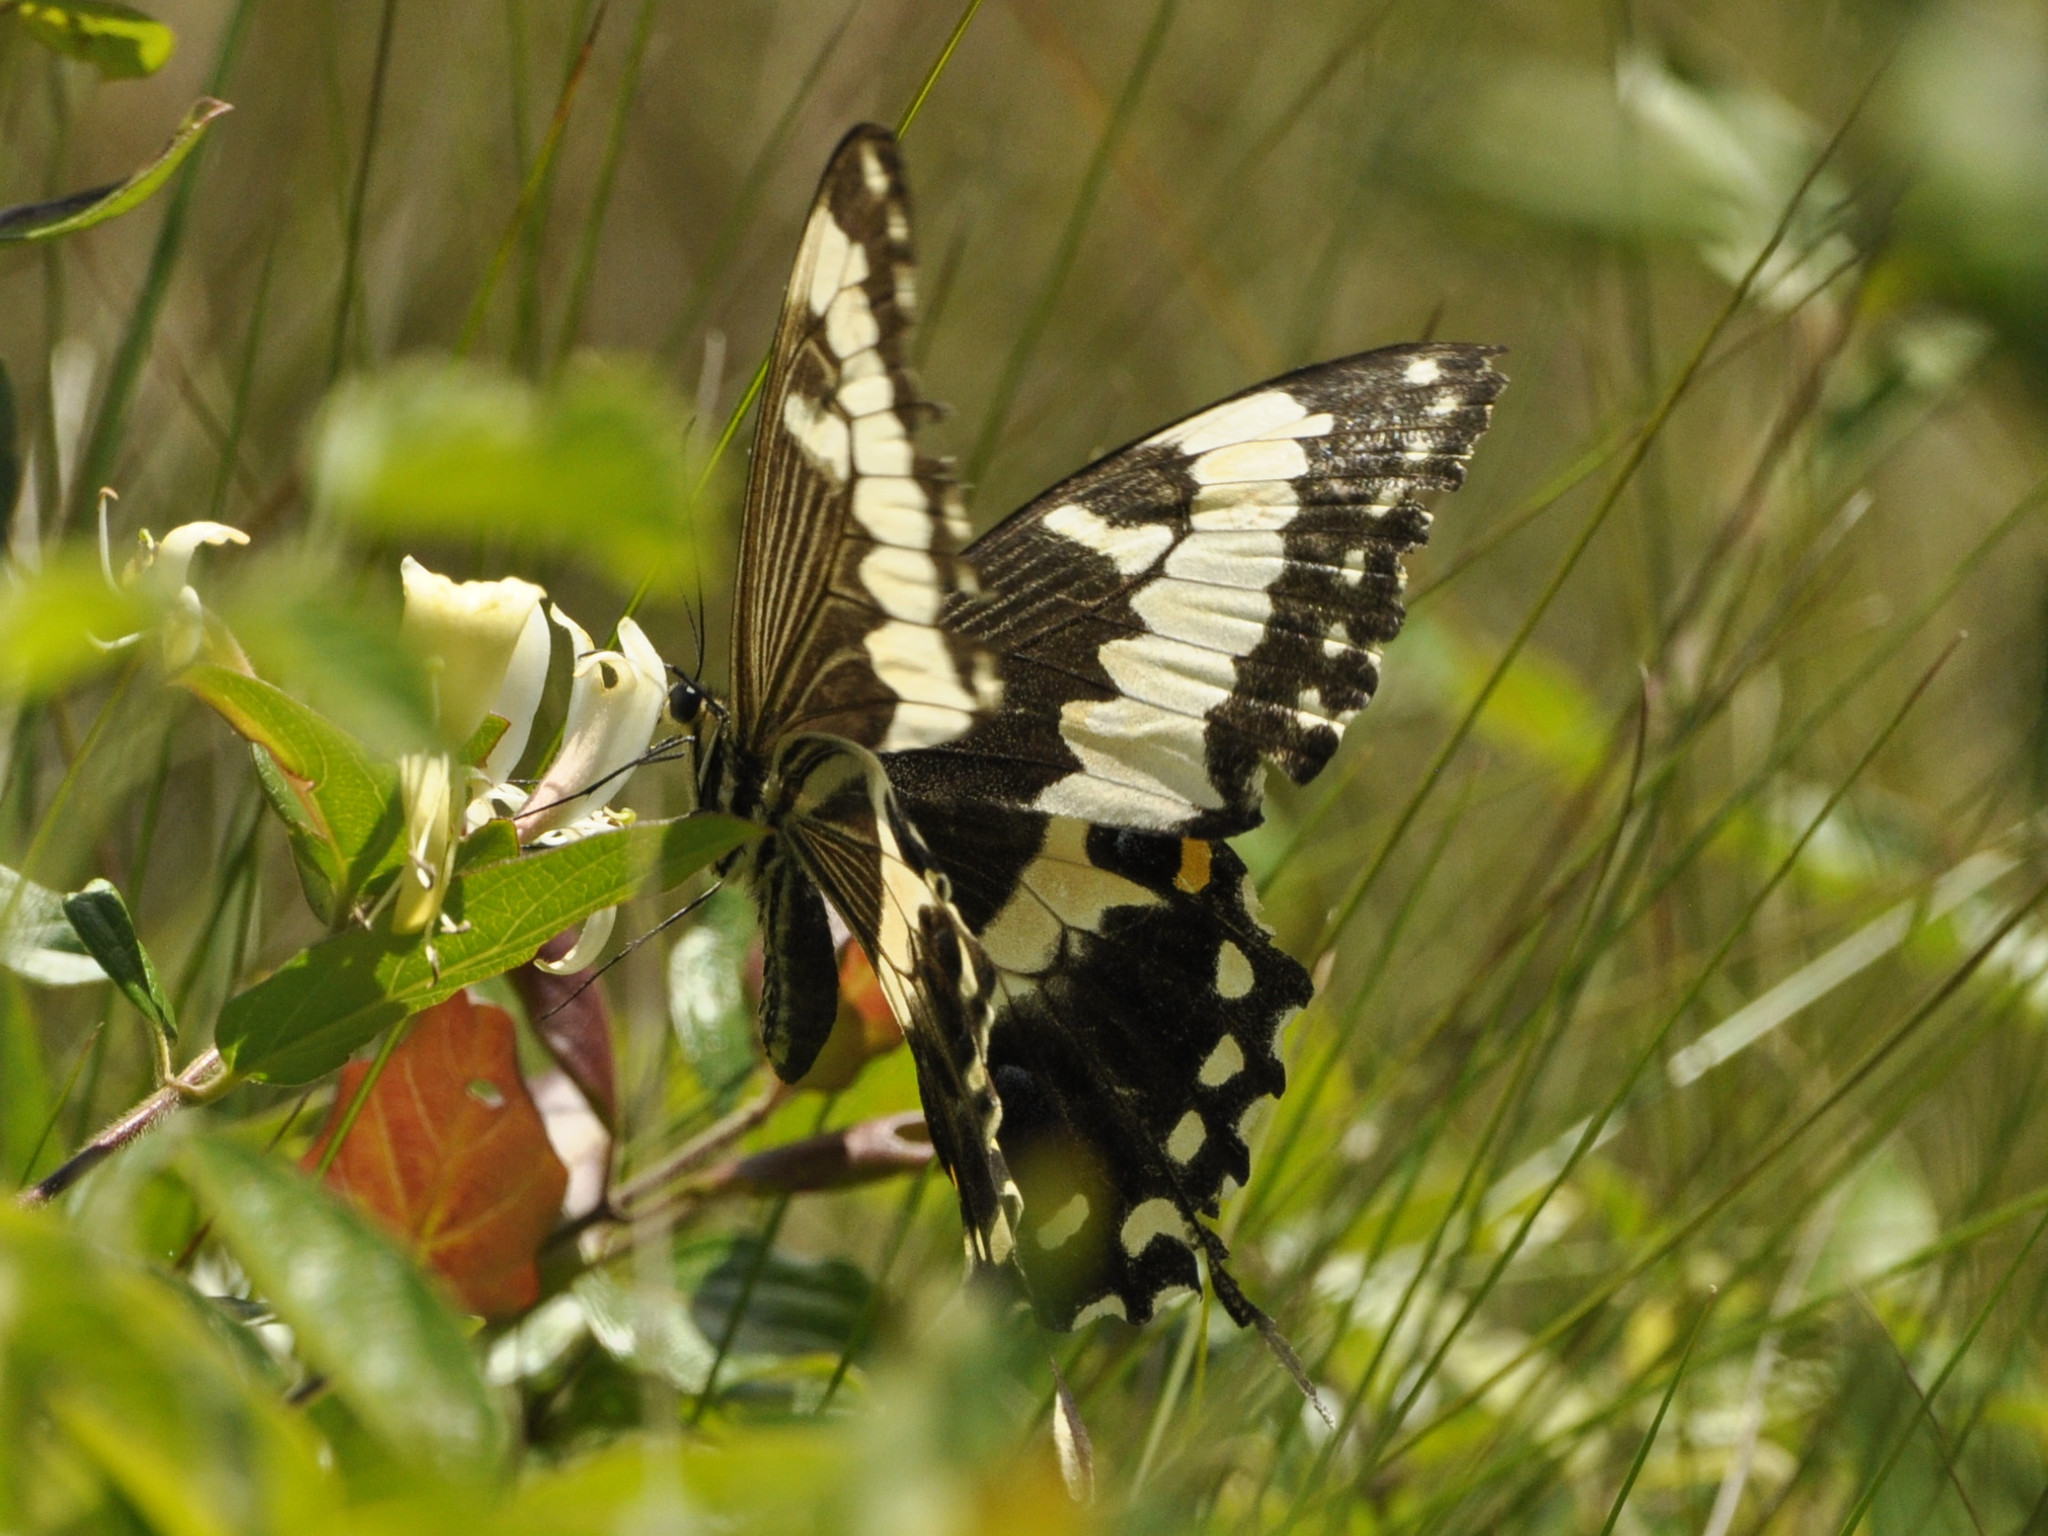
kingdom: Animalia
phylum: Arthropoda
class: Insecta
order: Lepidoptera
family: Papilionidae
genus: Papilio
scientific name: Papilio ophidicephalus
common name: Emperor swallowtail
